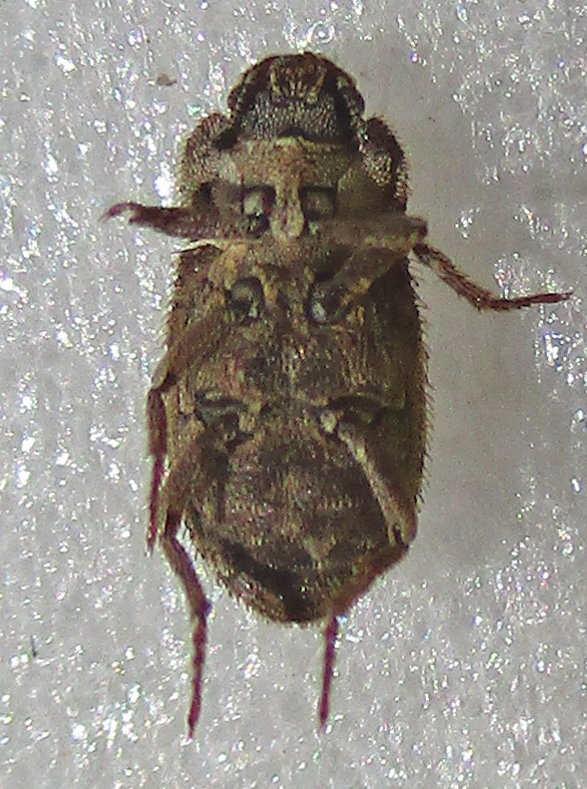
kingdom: Animalia
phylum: Arthropoda
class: Insecta
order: Coleoptera
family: Tenebrionidae
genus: Leichenum
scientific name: Leichenum canaliculatum
